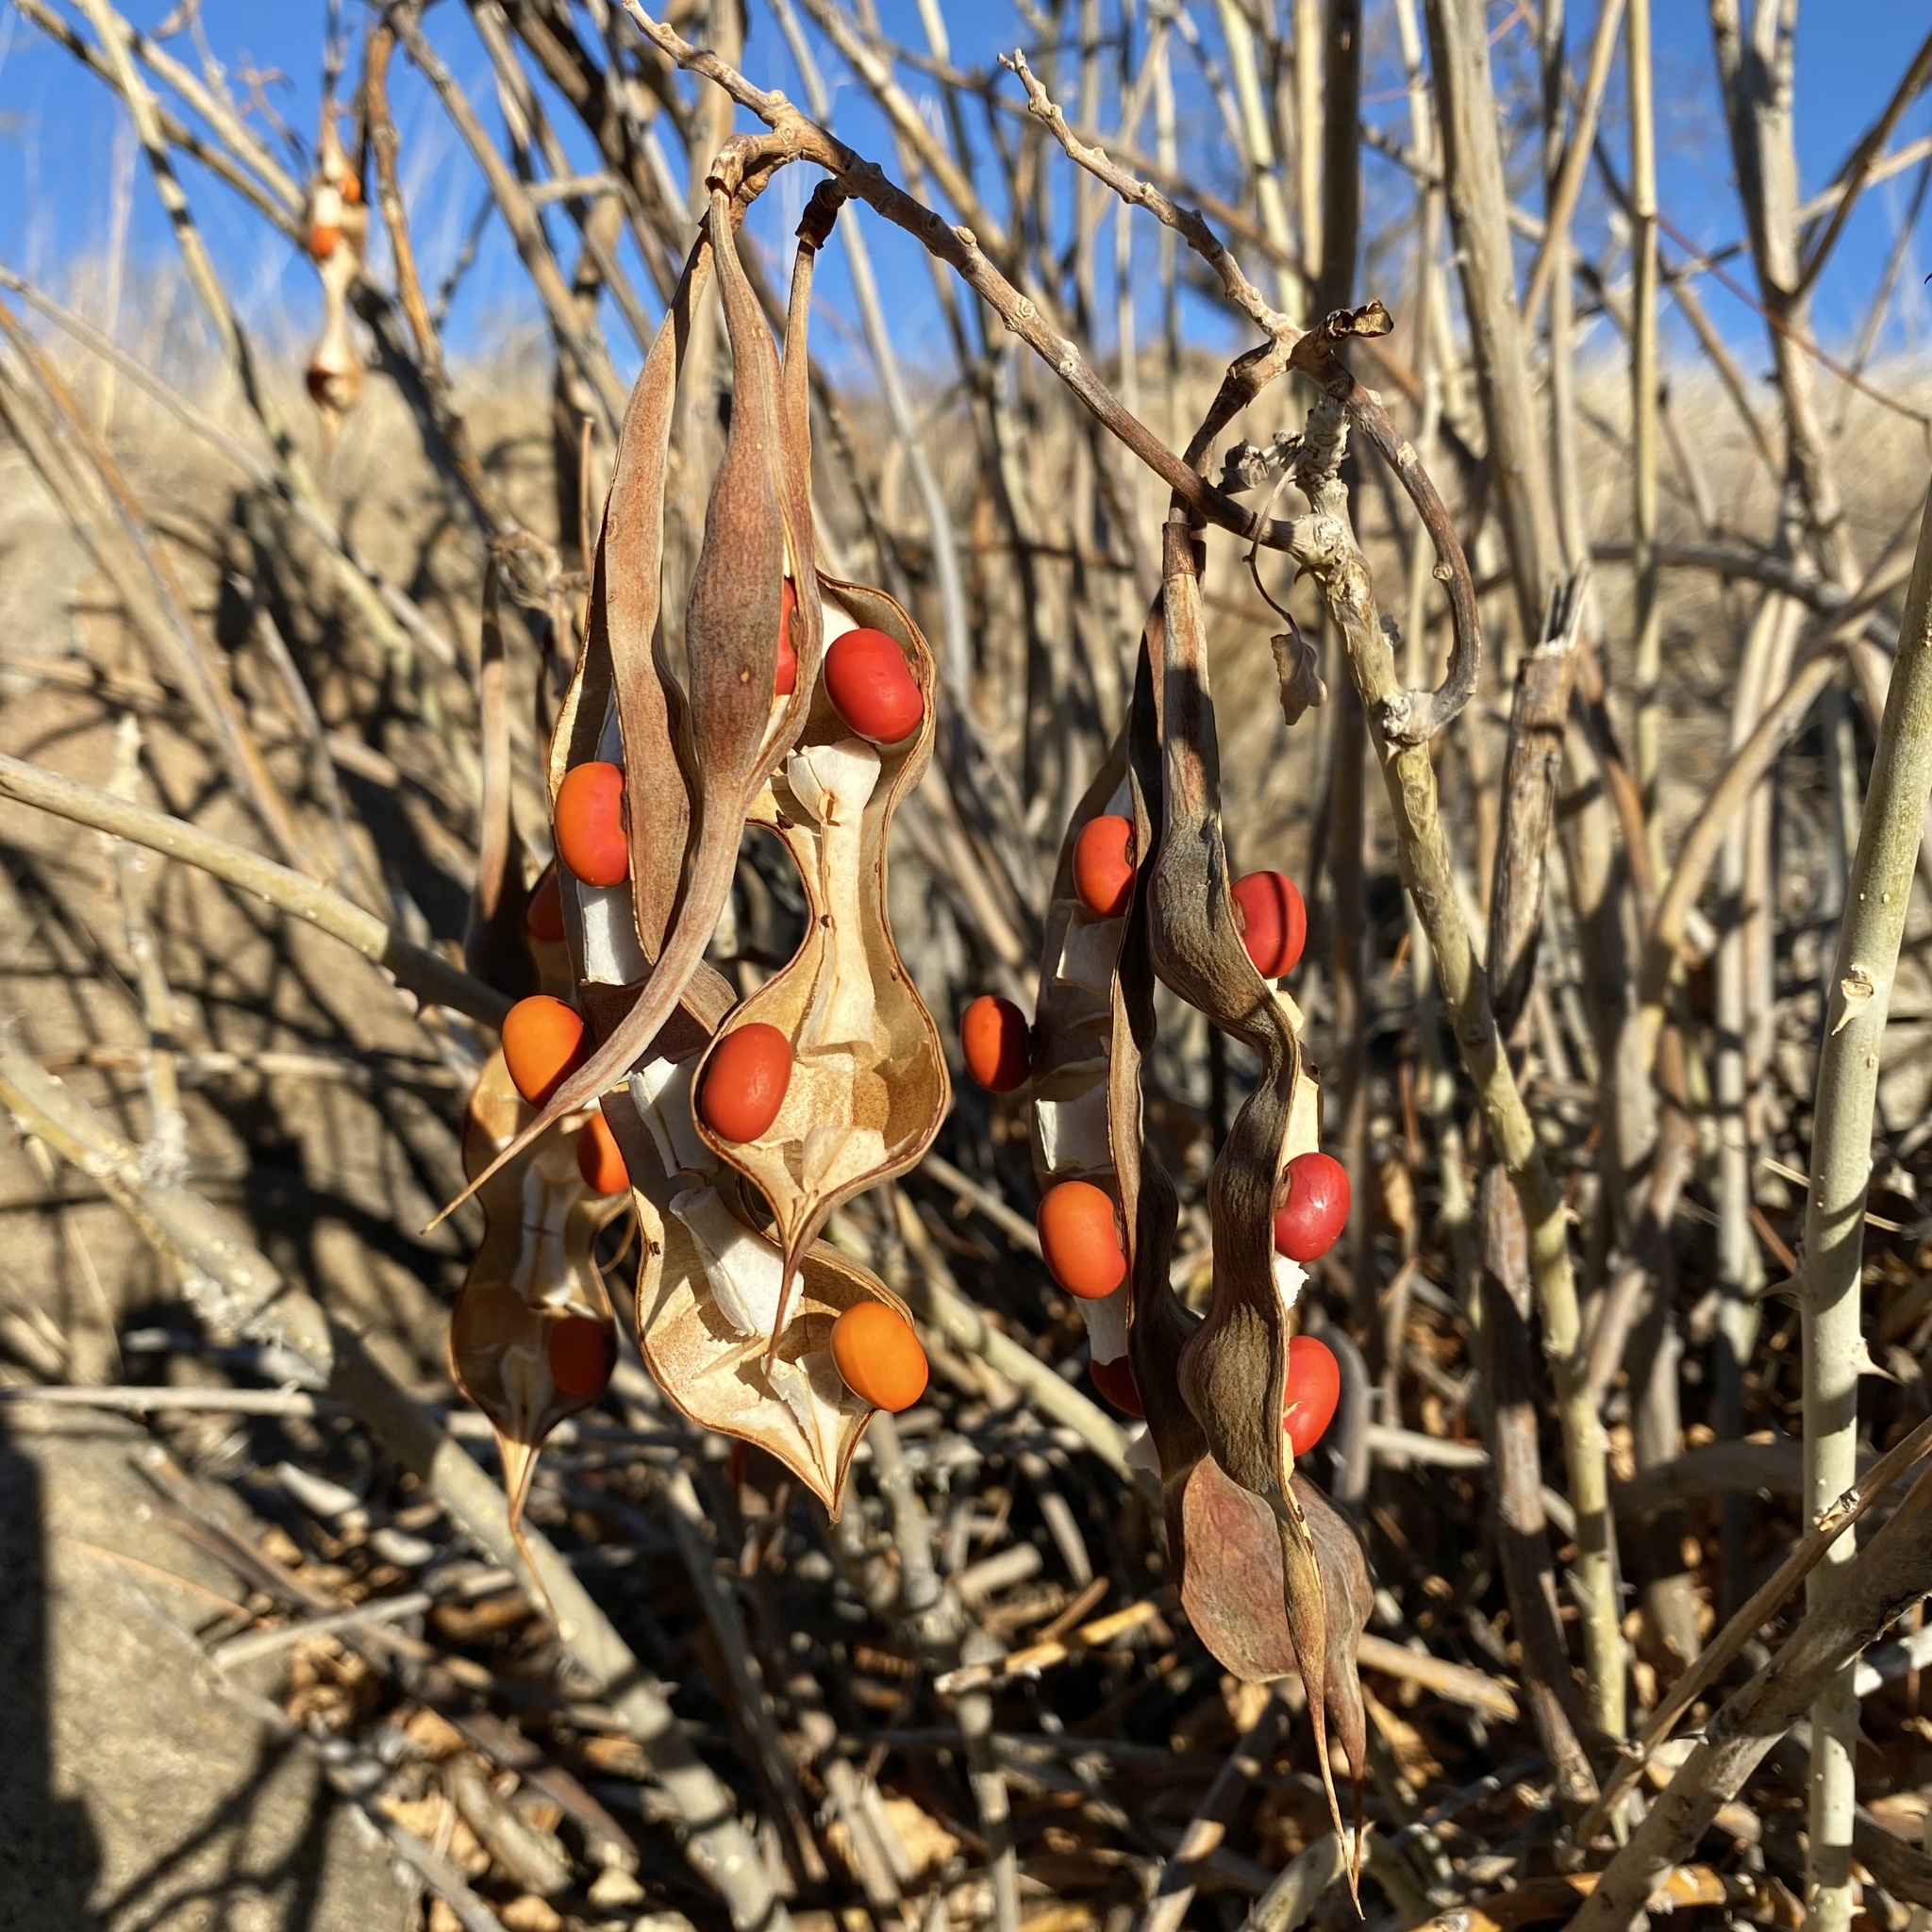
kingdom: Plantae
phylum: Tracheophyta
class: Magnoliopsida
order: Fabales
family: Fabaceae
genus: Erythrina
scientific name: Erythrina flabelliformis
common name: Chilicote
